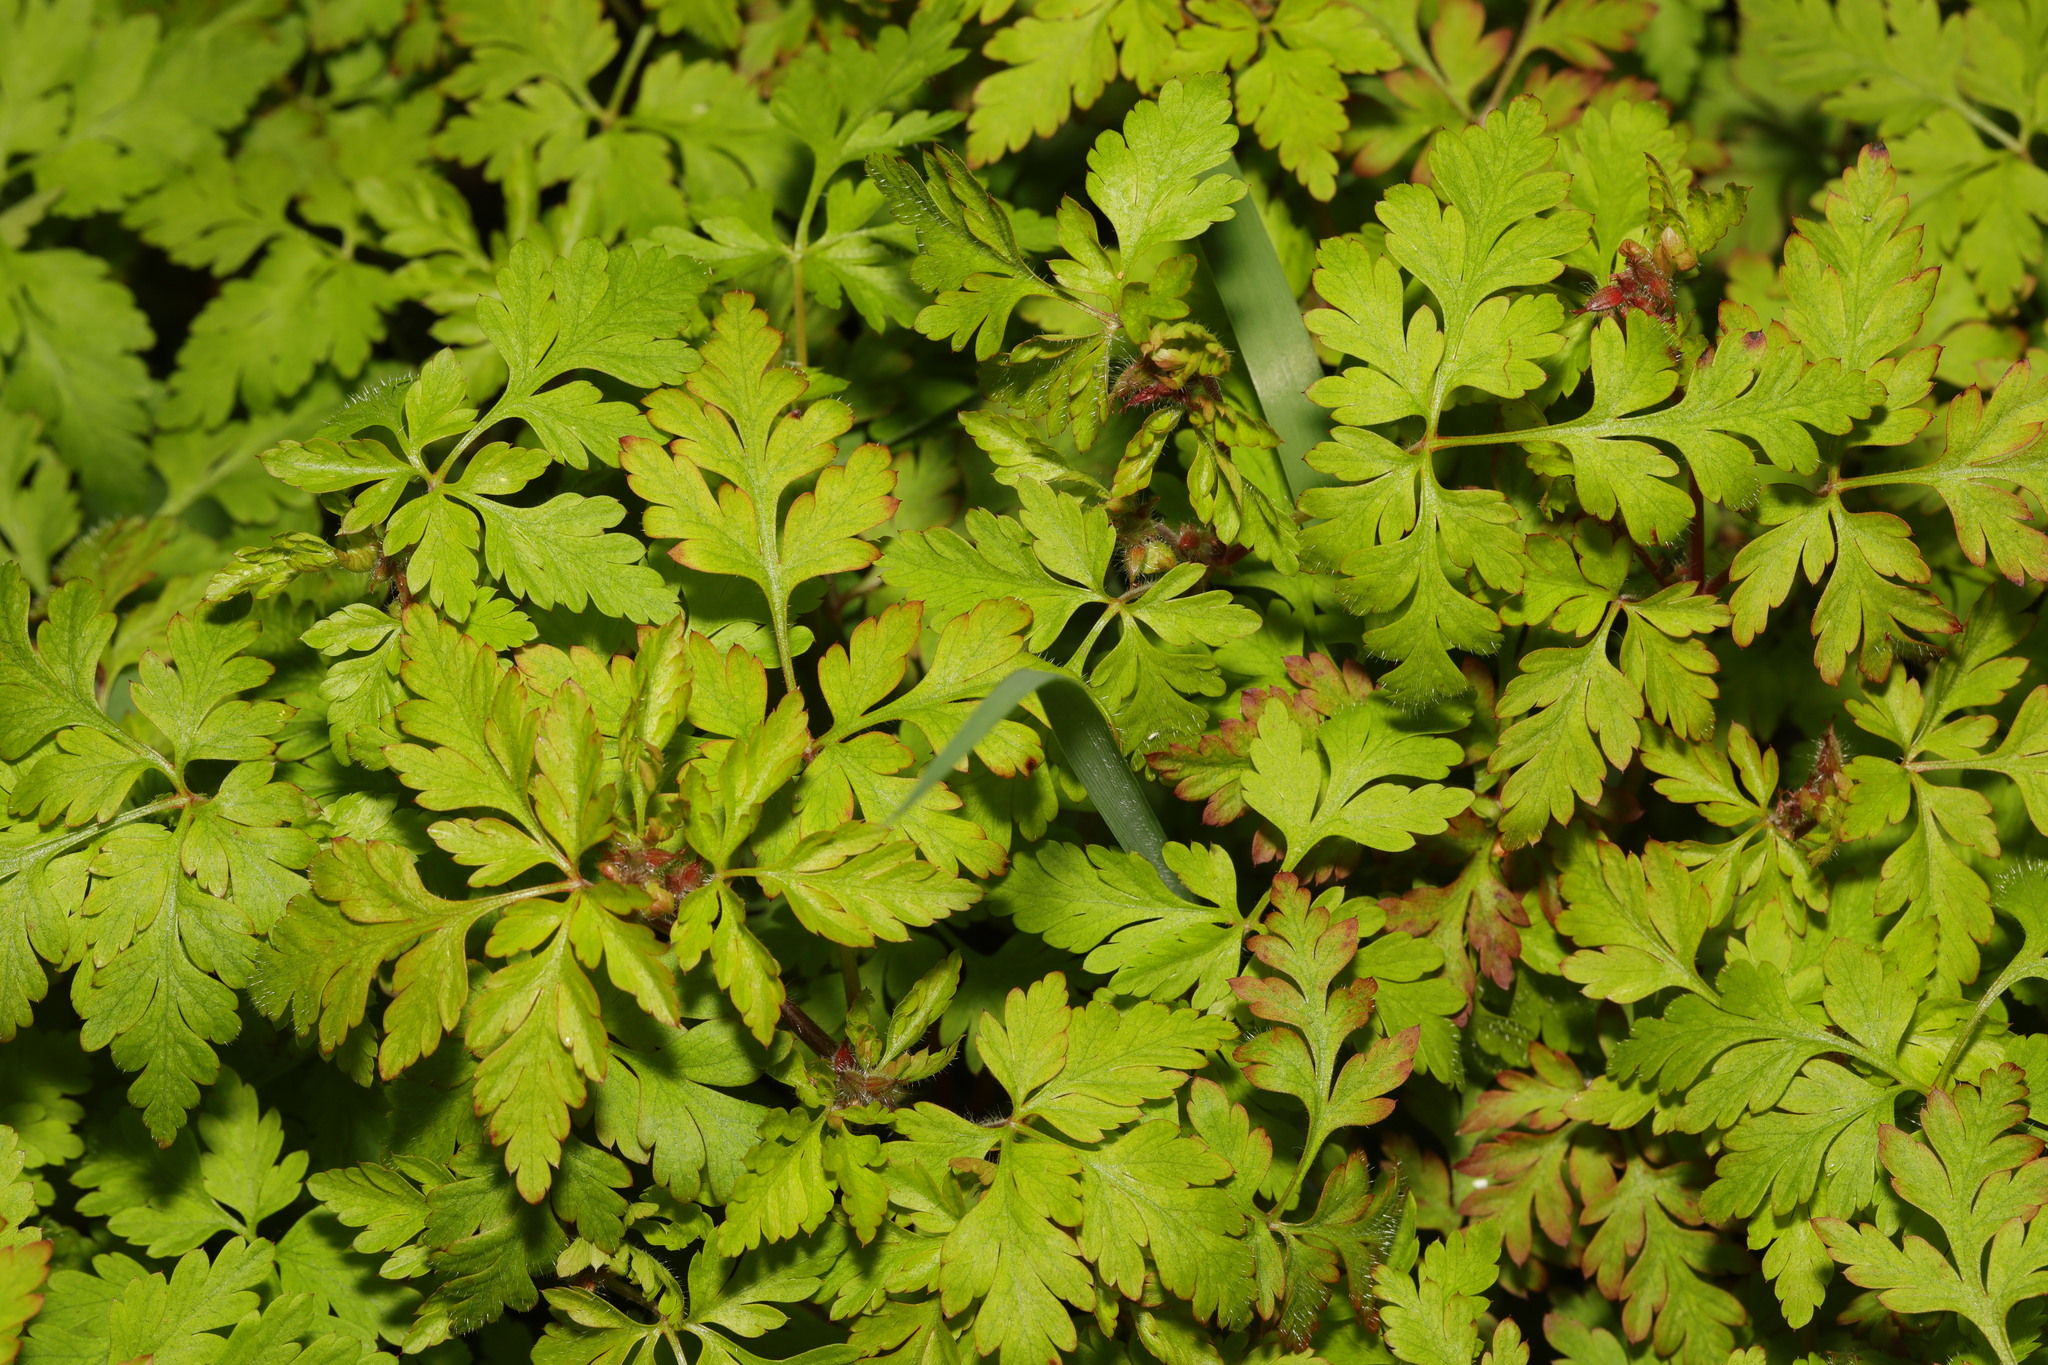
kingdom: Plantae
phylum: Tracheophyta
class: Magnoliopsida
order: Geraniales
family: Geraniaceae
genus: Geranium
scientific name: Geranium robertianum
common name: Herb-robert
